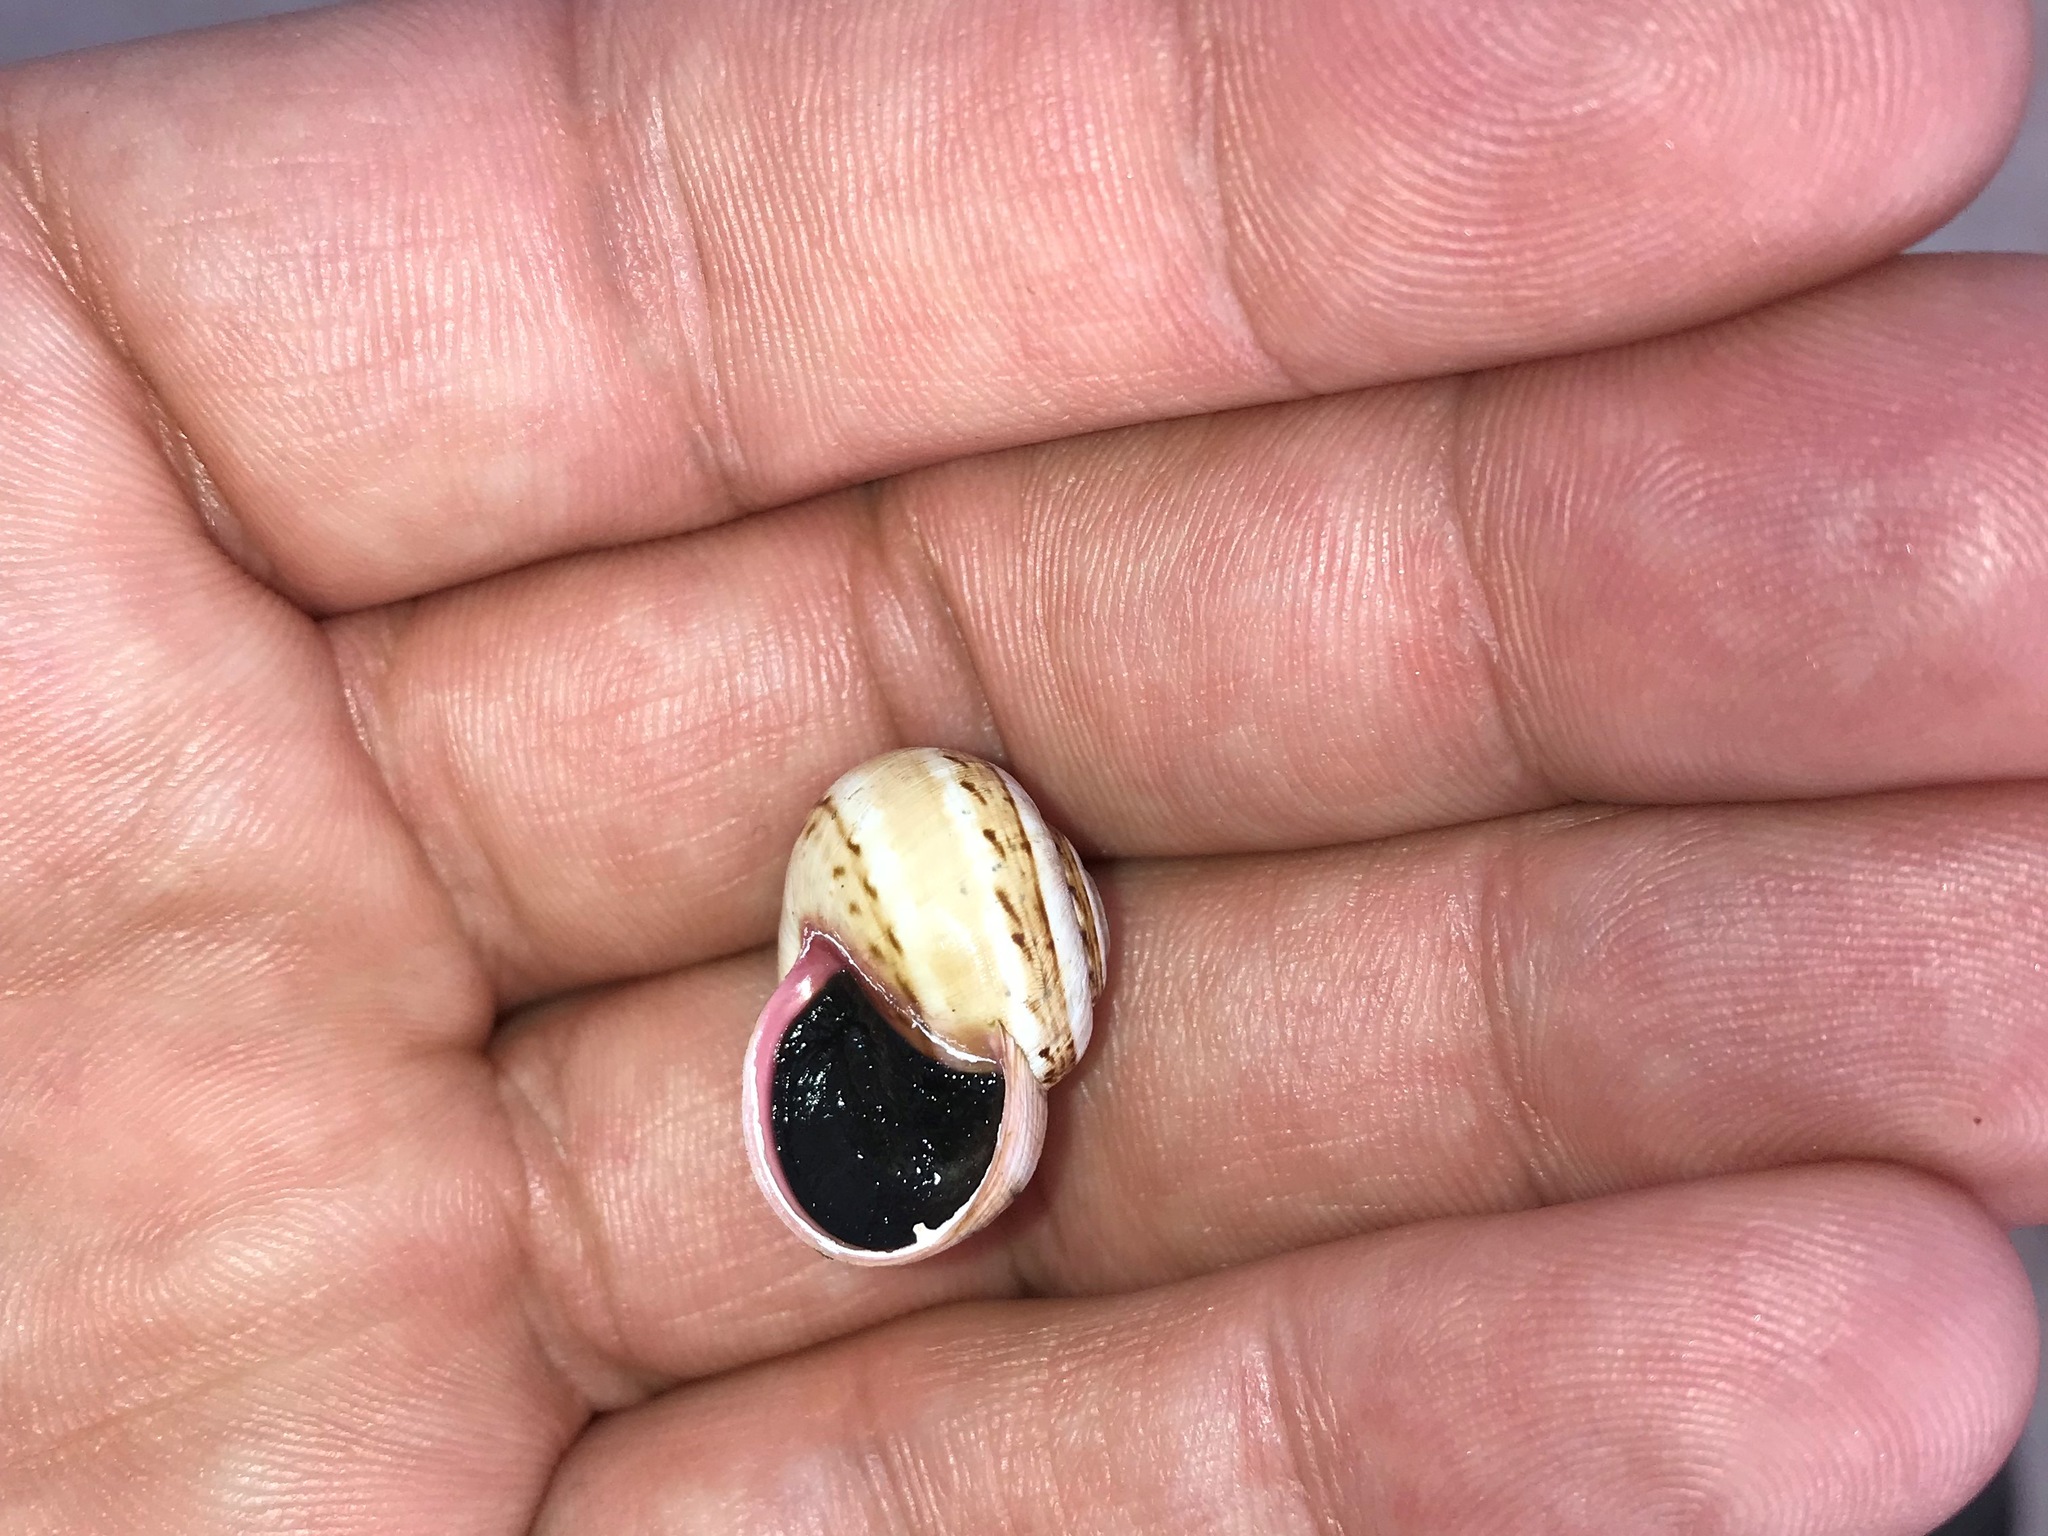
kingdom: Animalia
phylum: Mollusca
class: Gastropoda
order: Stylommatophora
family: Helicidae
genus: Theba
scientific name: Theba pisana
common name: White snail
